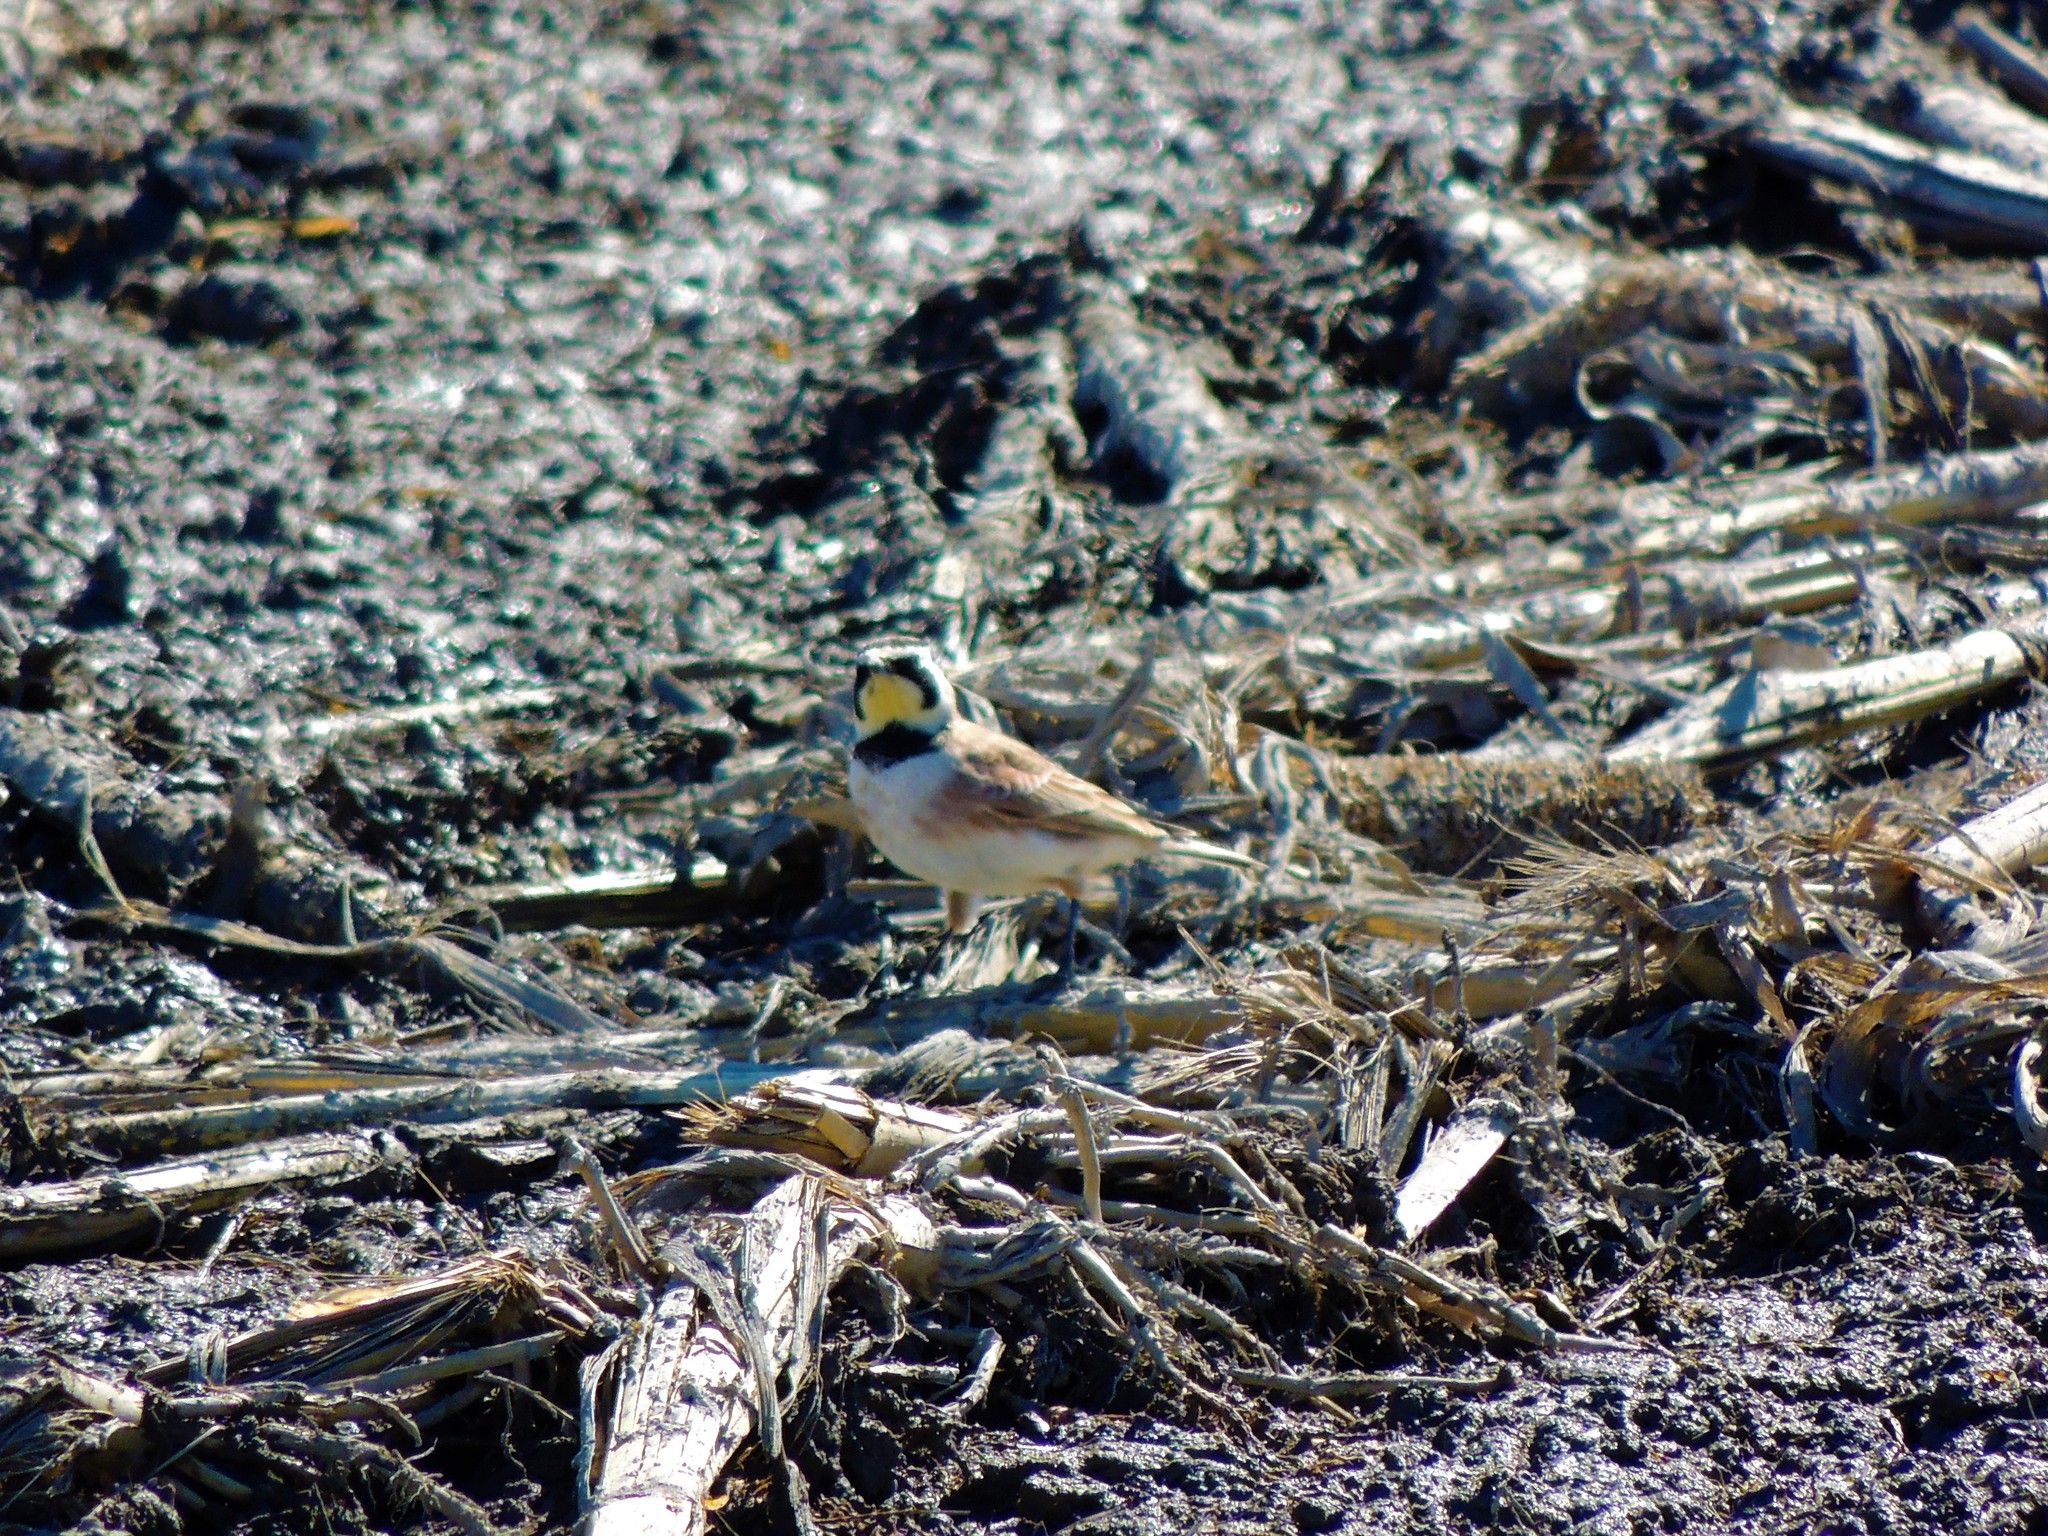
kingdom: Animalia
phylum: Chordata
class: Aves
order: Passeriformes
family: Alaudidae
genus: Eremophila
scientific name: Eremophila alpestris
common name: Horned lark
